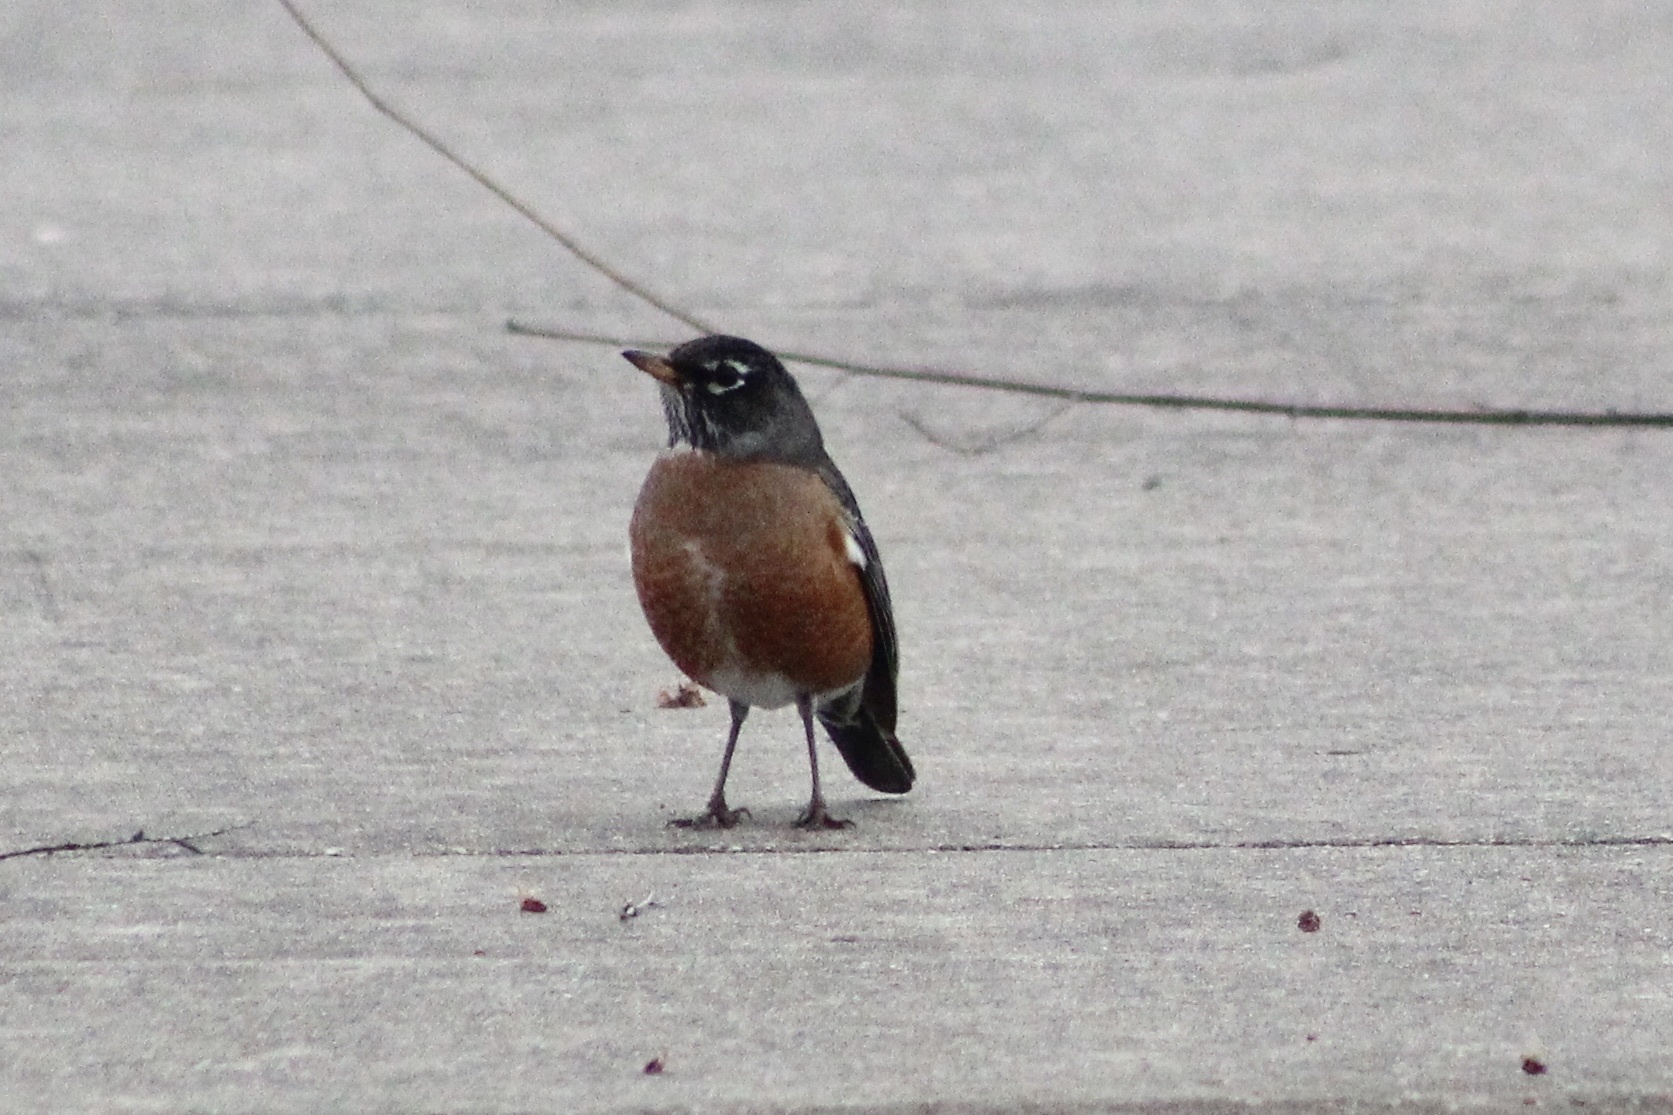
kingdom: Animalia
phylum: Chordata
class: Aves
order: Passeriformes
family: Turdidae
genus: Turdus
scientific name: Turdus migratorius
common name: American robin
